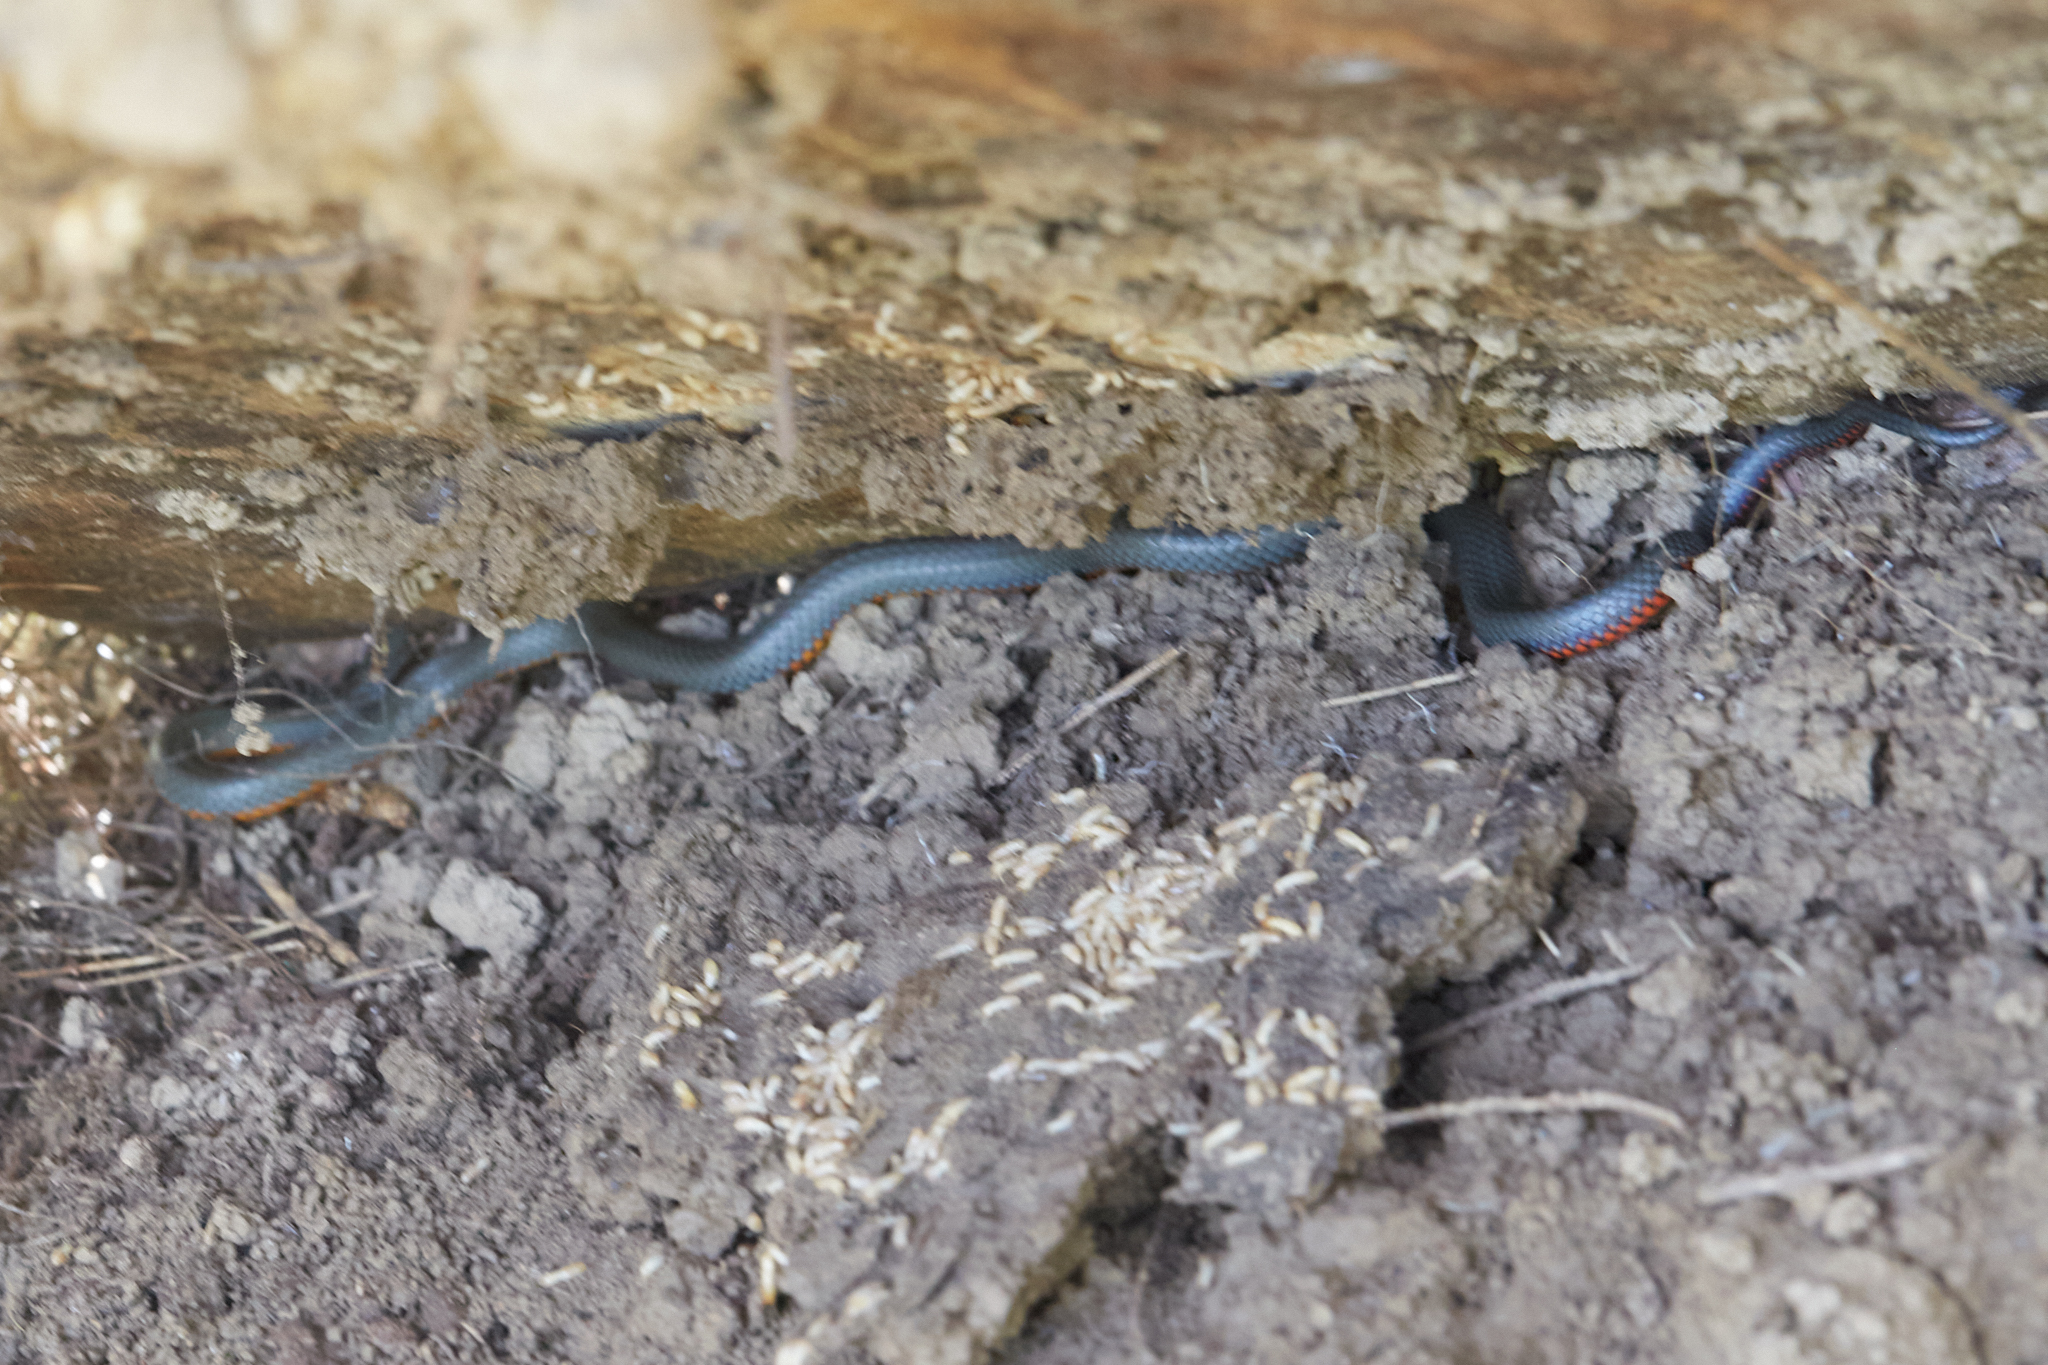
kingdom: Animalia
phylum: Chordata
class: Squamata
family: Colubridae
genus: Diadophis
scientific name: Diadophis punctatus
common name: Ringneck snake
